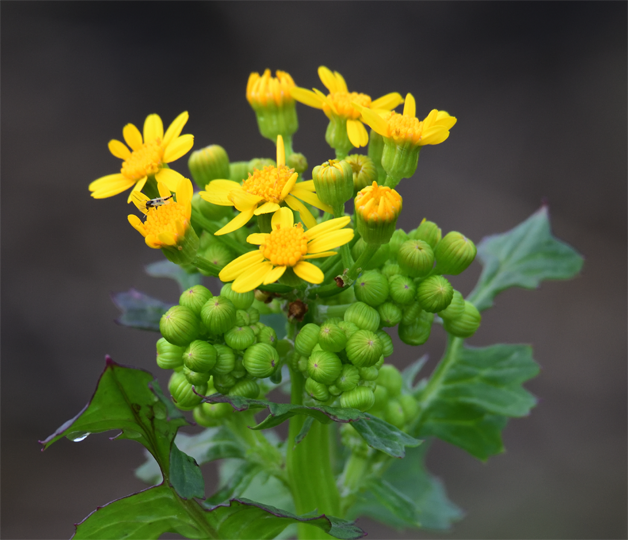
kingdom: Plantae
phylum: Tracheophyta
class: Magnoliopsida
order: Asterales
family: Asteraceae
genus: Packera
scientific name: Packera glabella
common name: Butterweed
